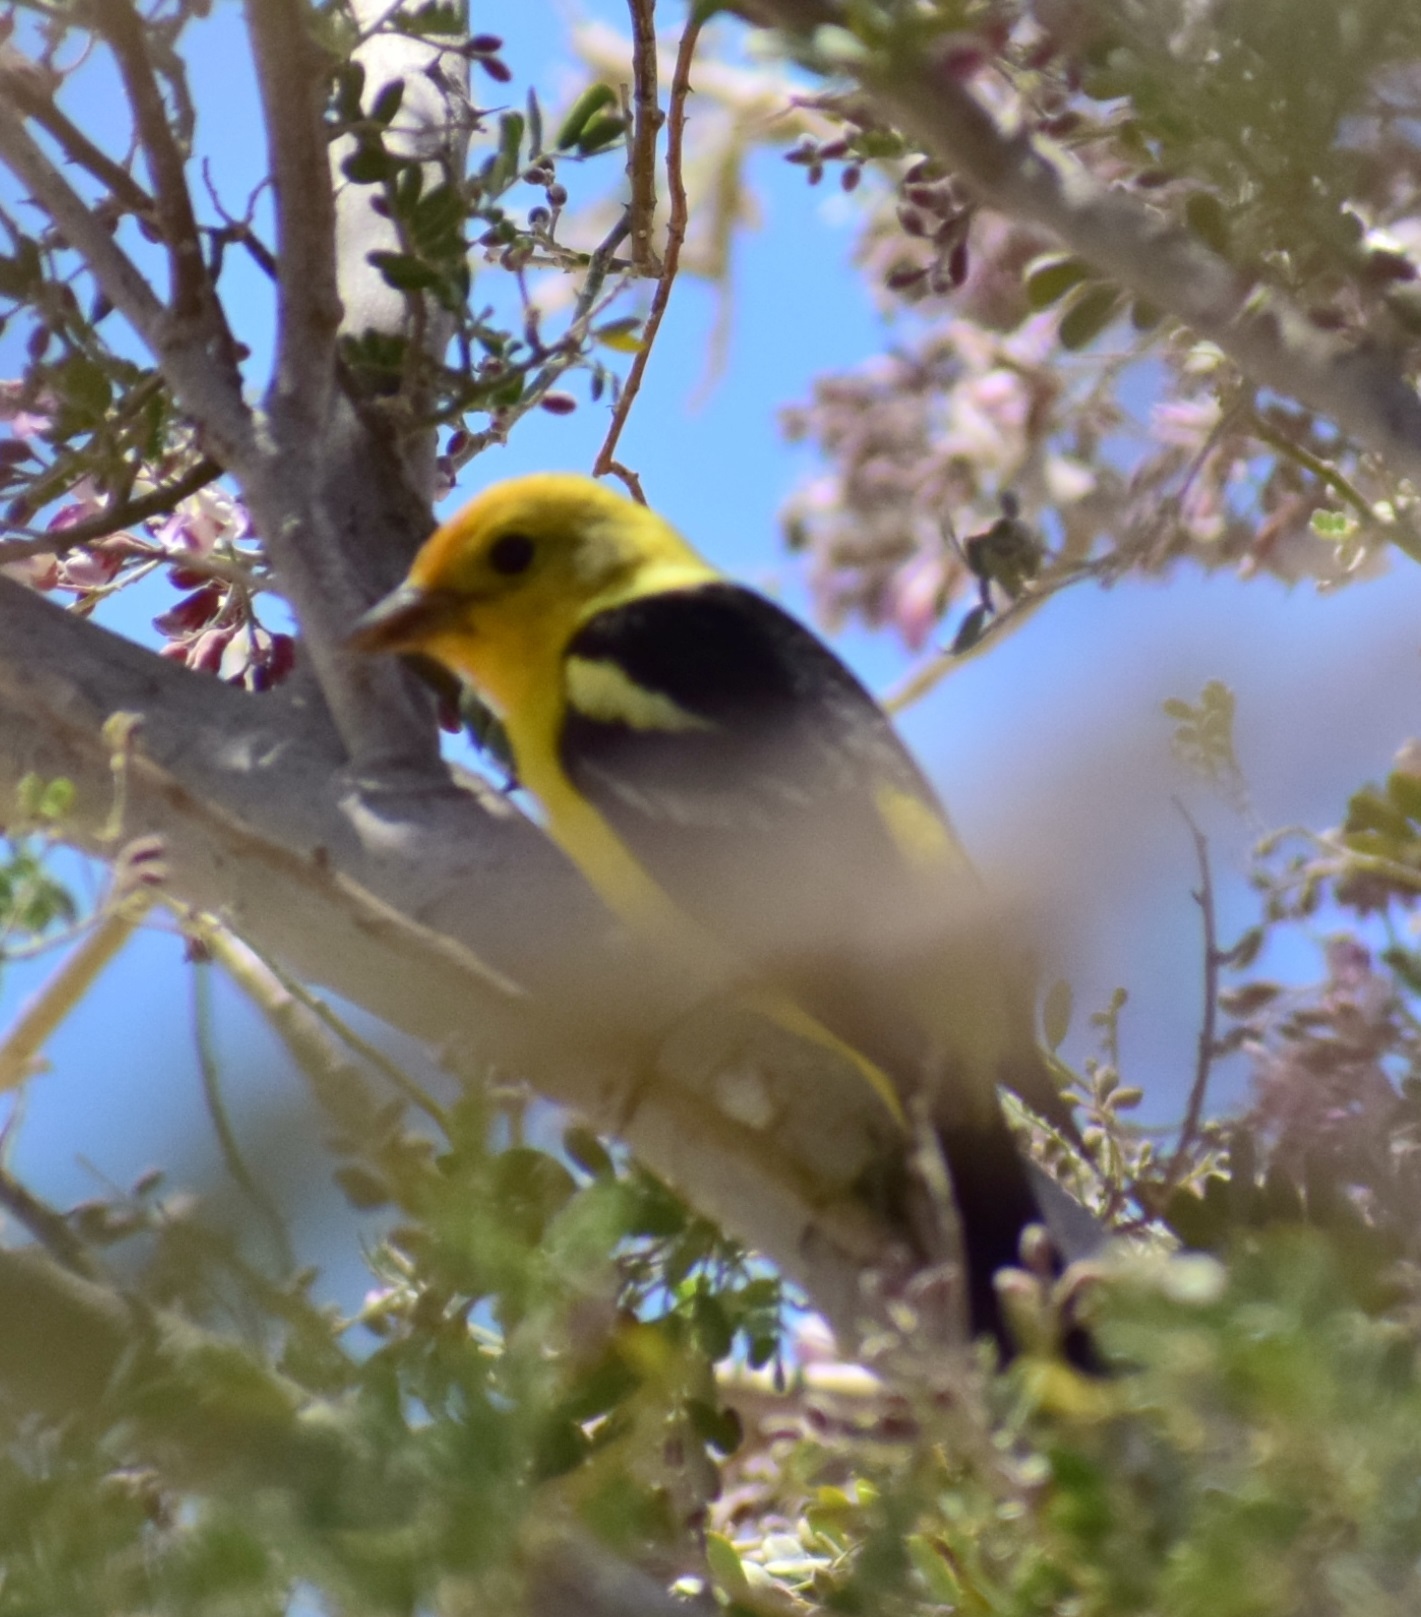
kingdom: Animalia
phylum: Chordata
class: Aves
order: Passeriformes
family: Cardinalidae
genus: Piranga
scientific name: Piranga ludoviciana
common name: Western tanager
